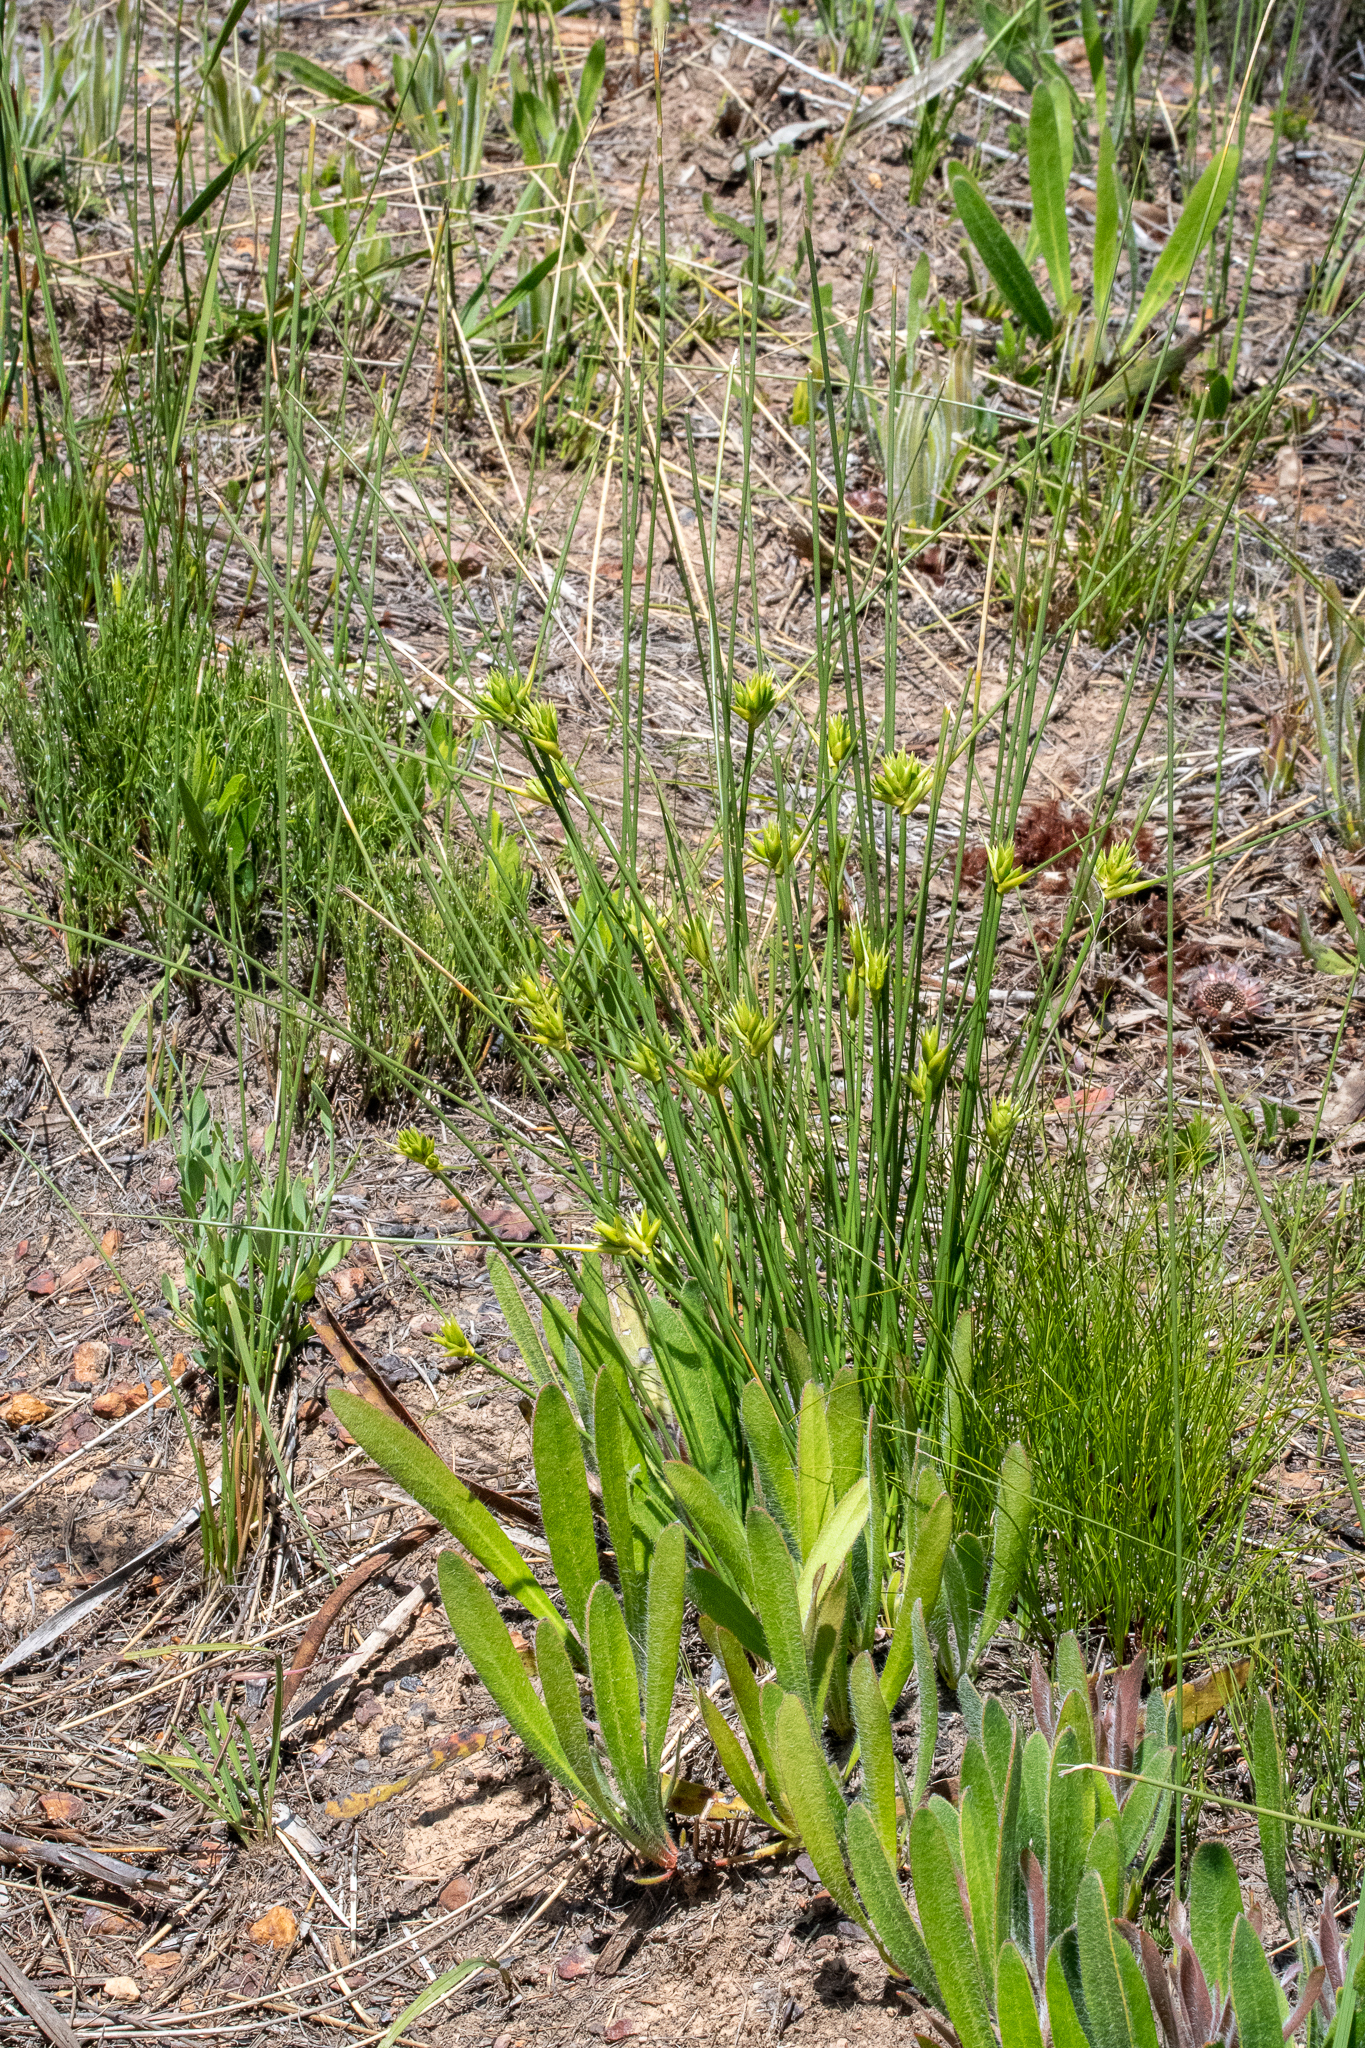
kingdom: Plantae
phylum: Tracheophyta
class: Liliopsida
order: Asparagales
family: Iridaceae
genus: Bobartia
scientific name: Bobartia indica
